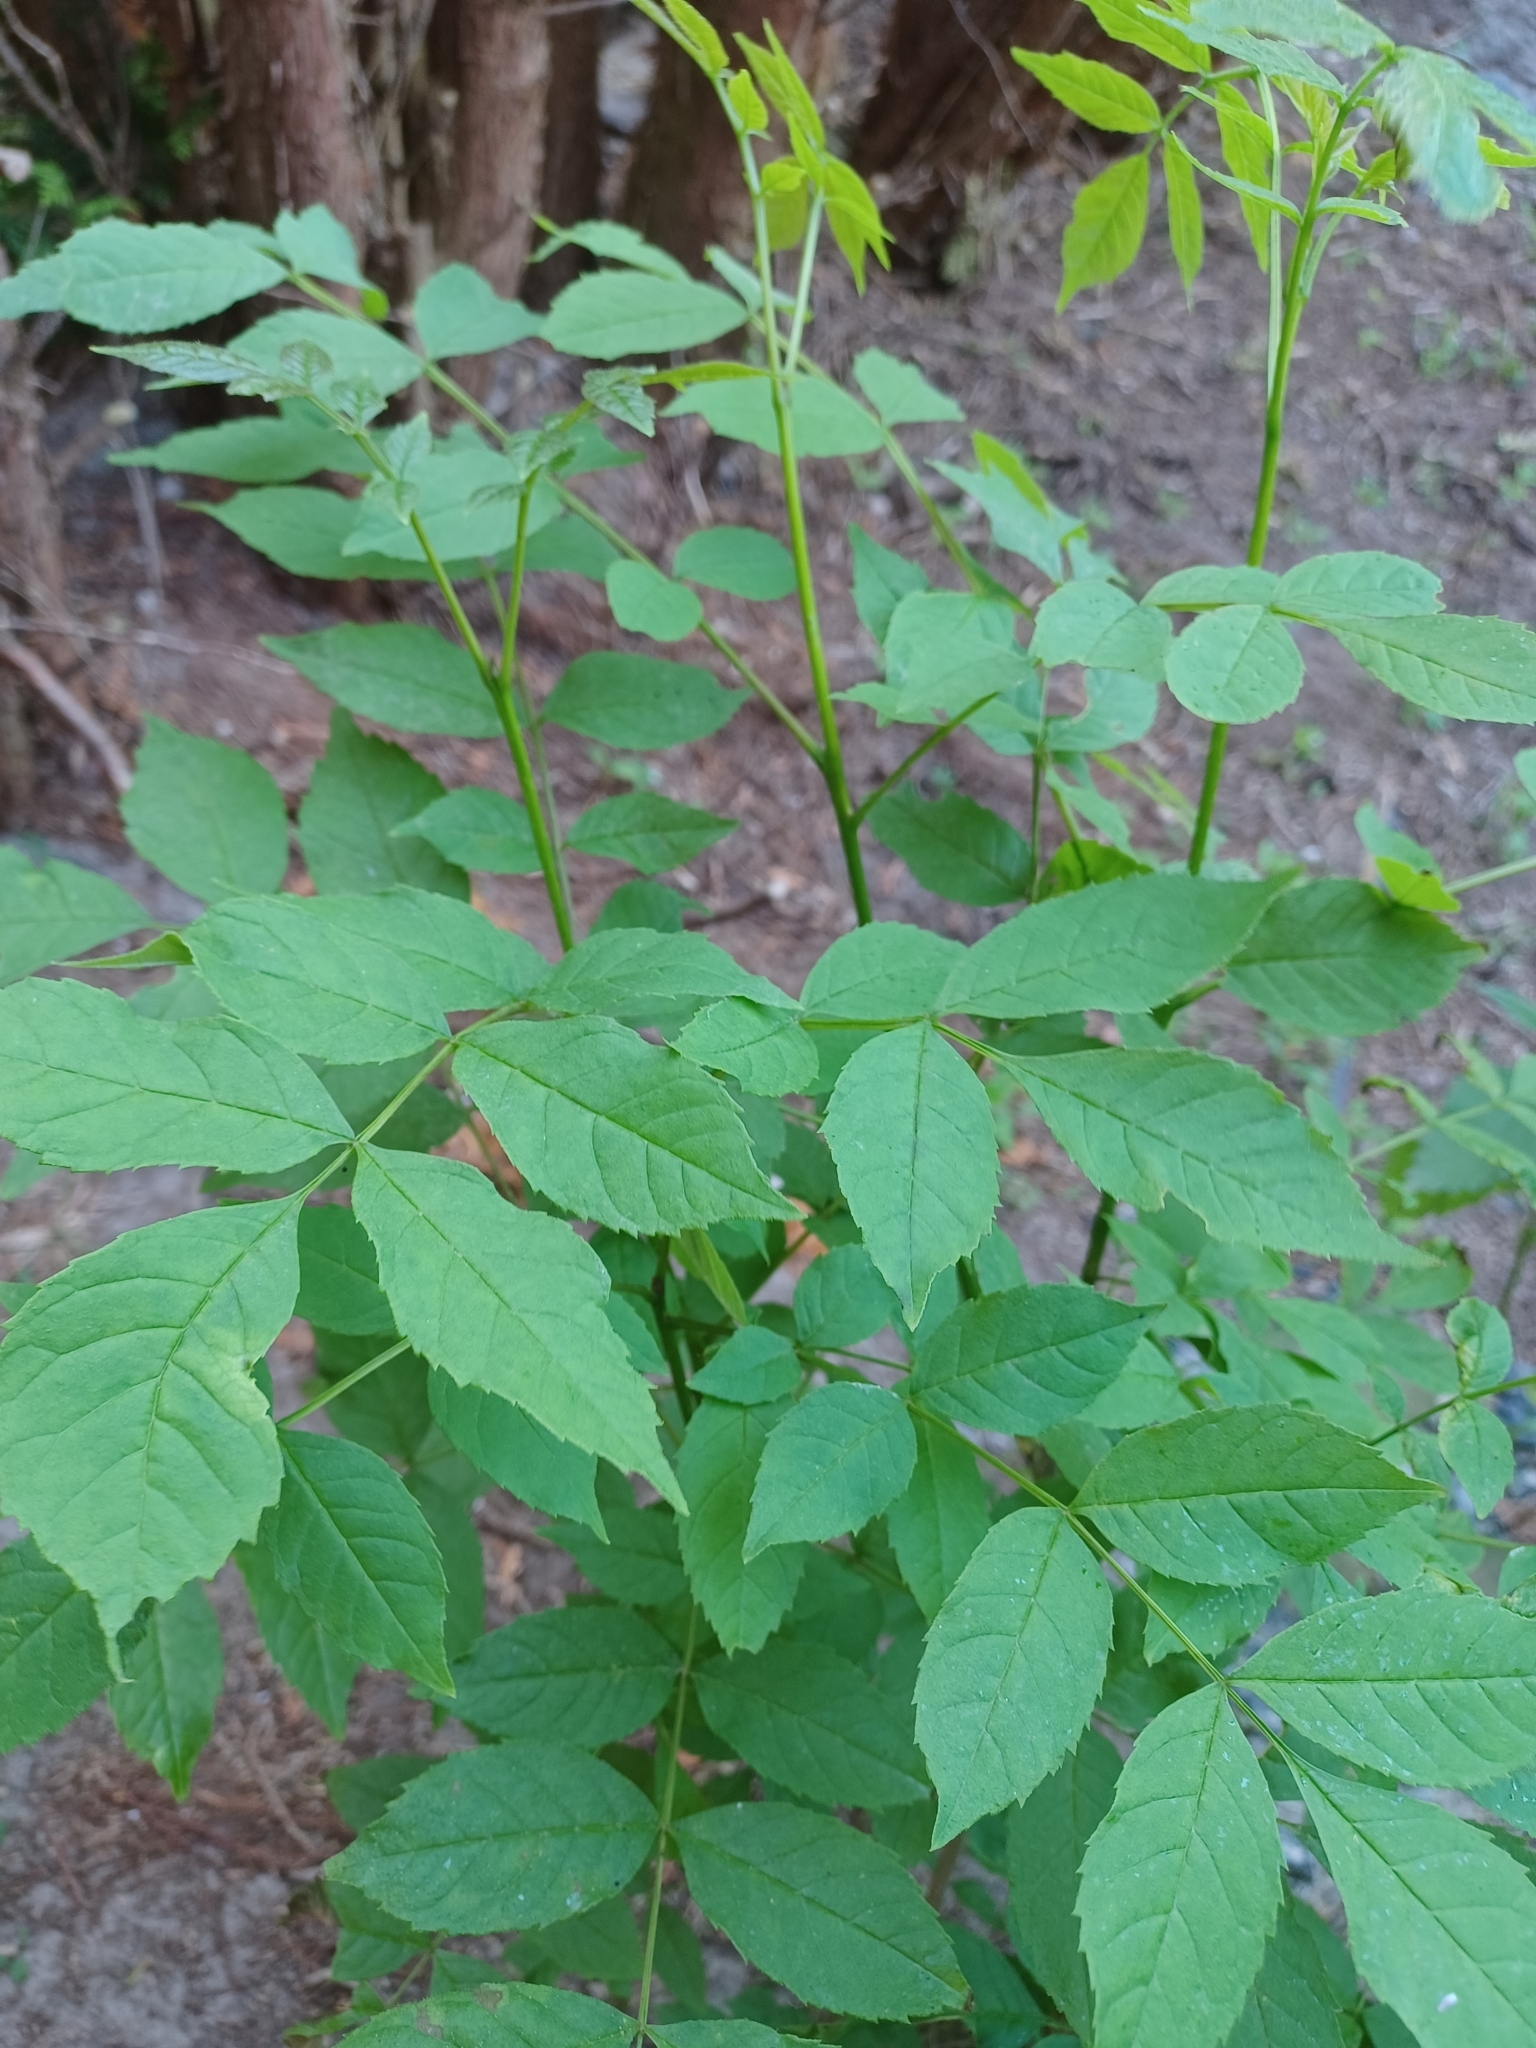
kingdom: Plantae
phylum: Tracheophyta
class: Magnoliopsida
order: Lamiales
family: Oleaceae
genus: Fraxinus
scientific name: Fraxinus excelsior
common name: European ash
